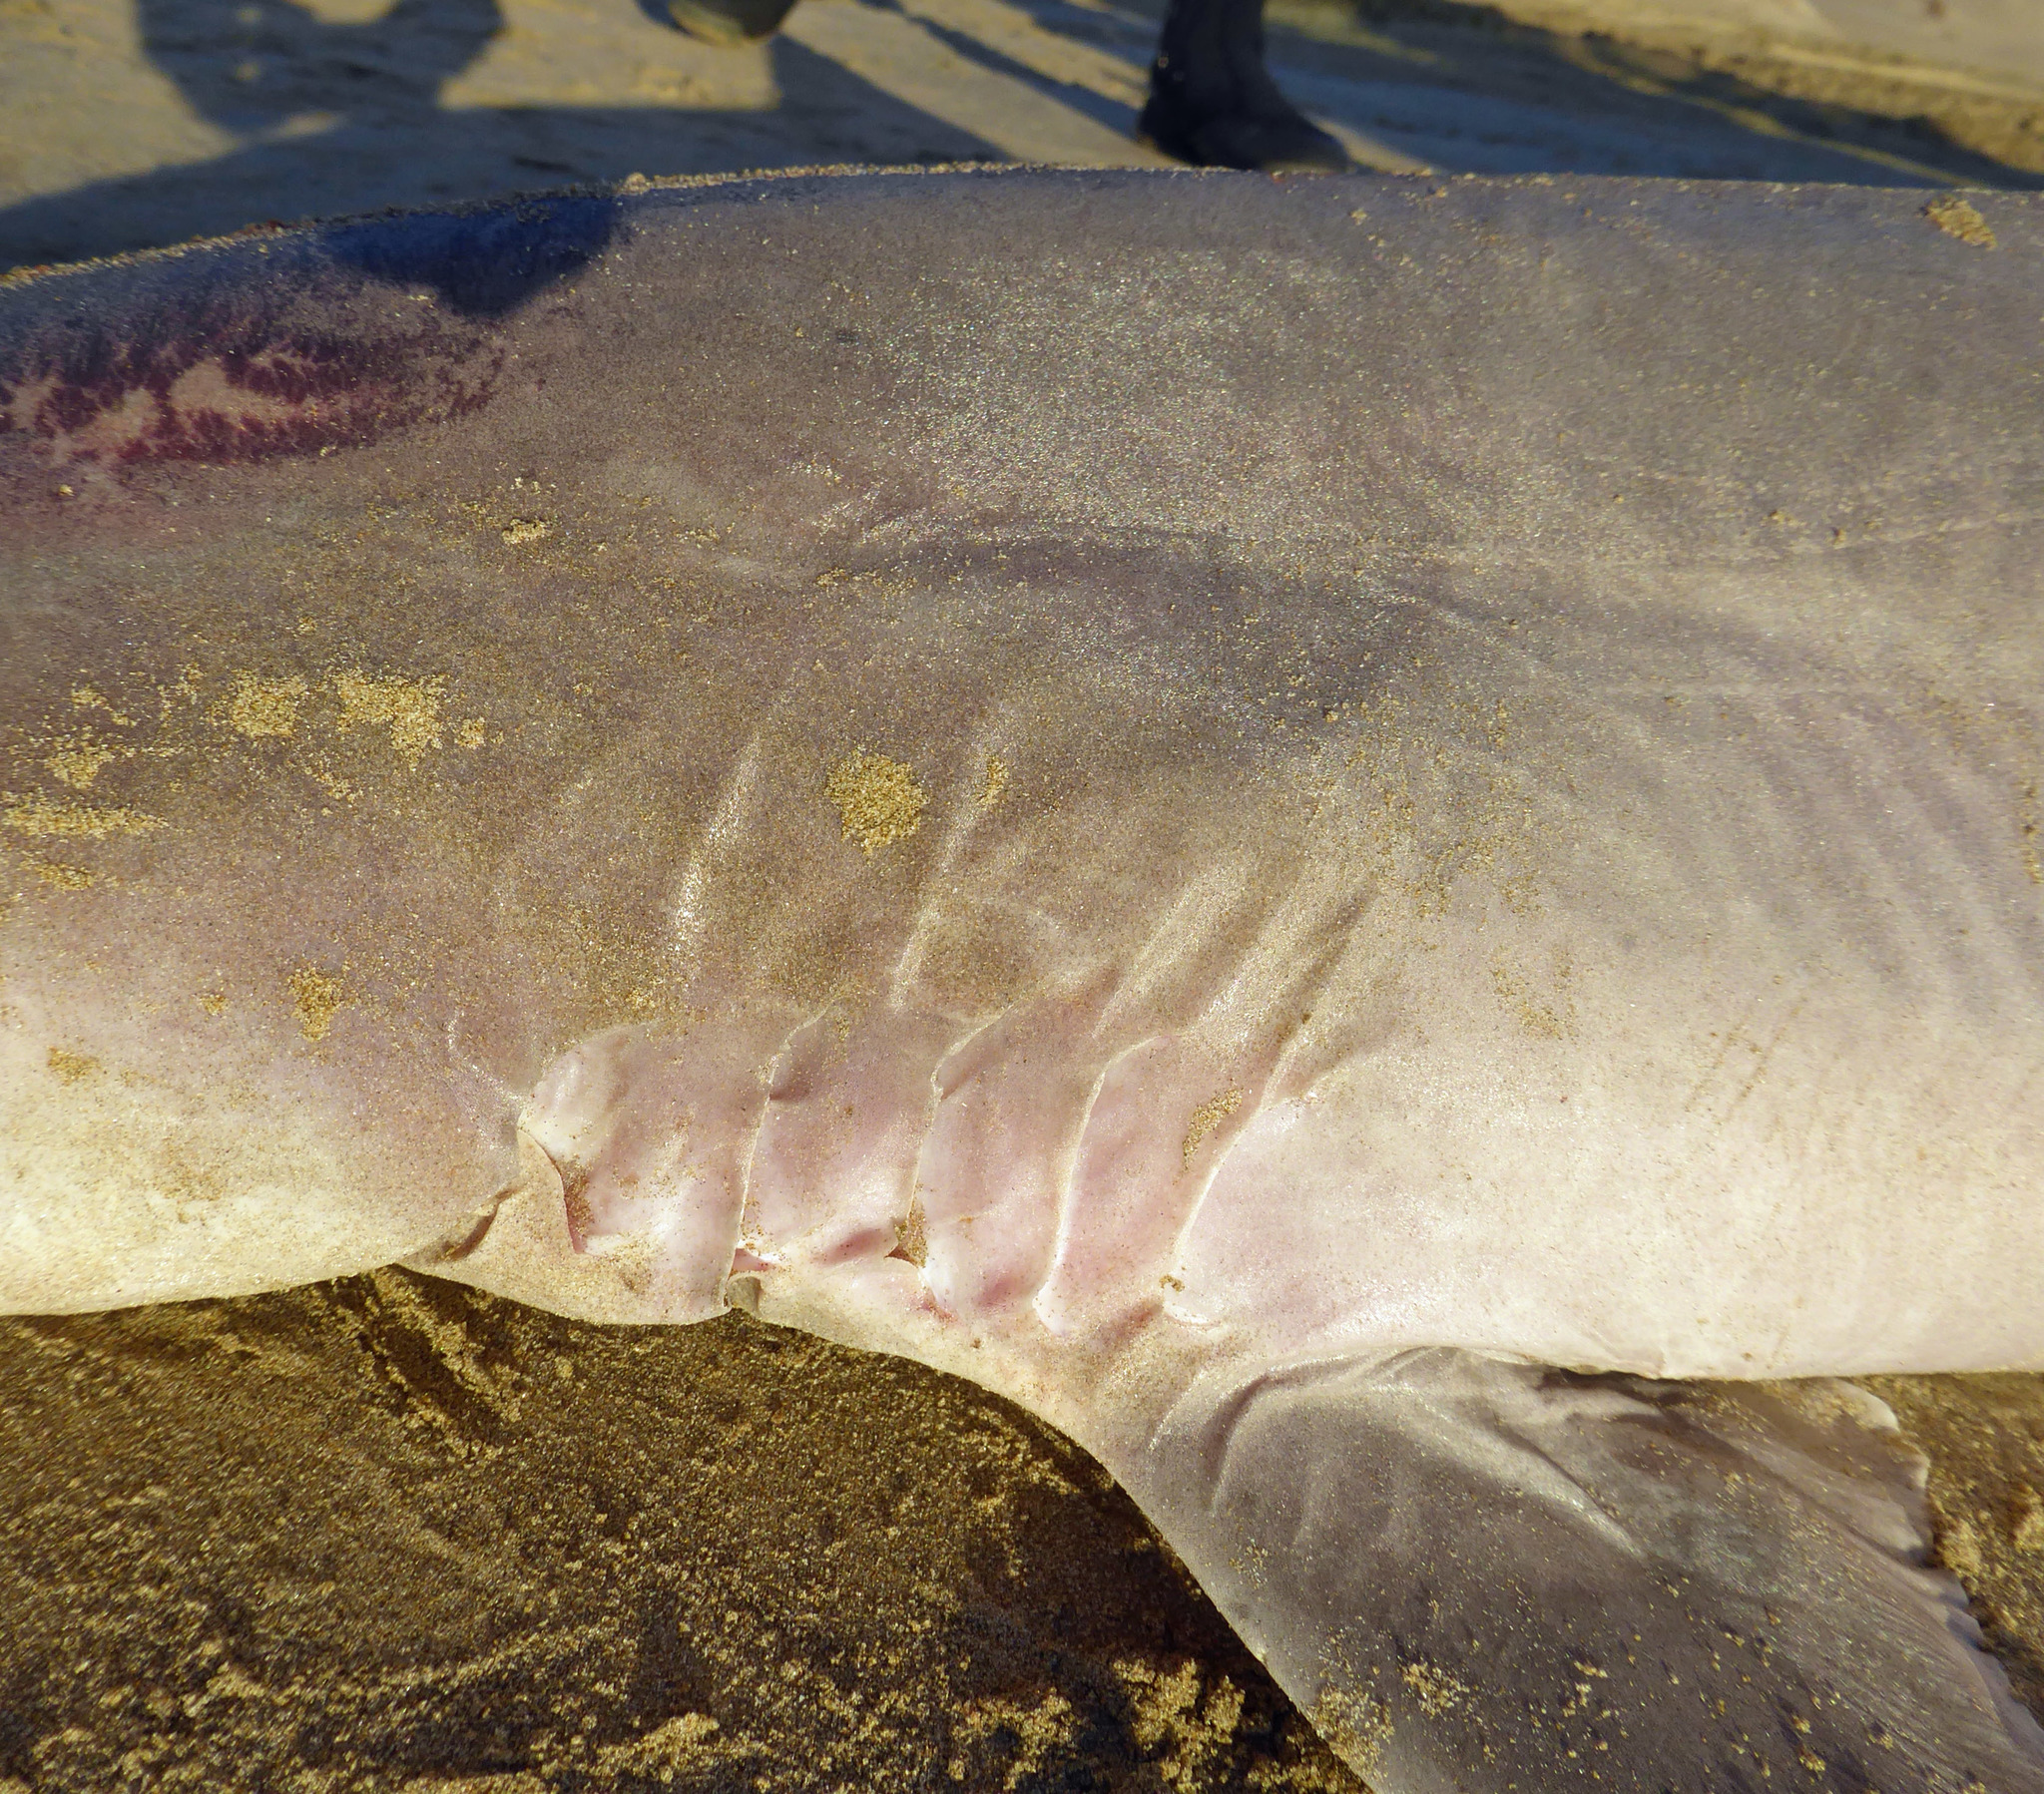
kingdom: Animalia
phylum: Chordata
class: Elasmobranchii
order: Carcharhiniformes
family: Triakidae
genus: Galeorhinus
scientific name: Galeorhinus galeus
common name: Tope
